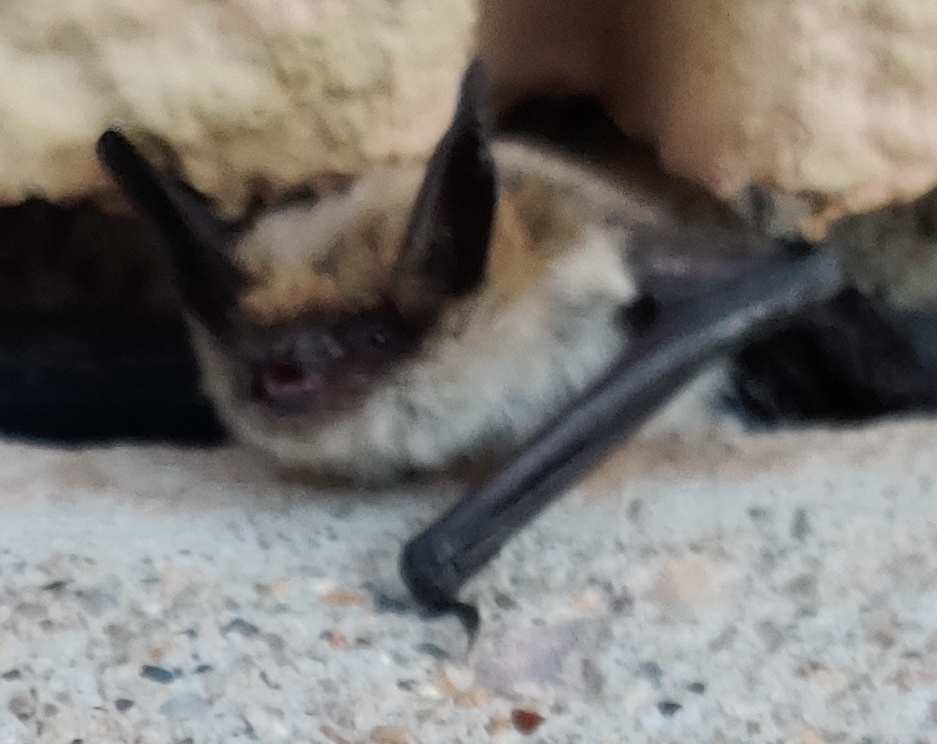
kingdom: Animalia
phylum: Chordata
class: Mammalia
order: Chiroptera
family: Vespertilionidae
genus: Myotis
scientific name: Myotis thysanodes
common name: Fringed myotis
